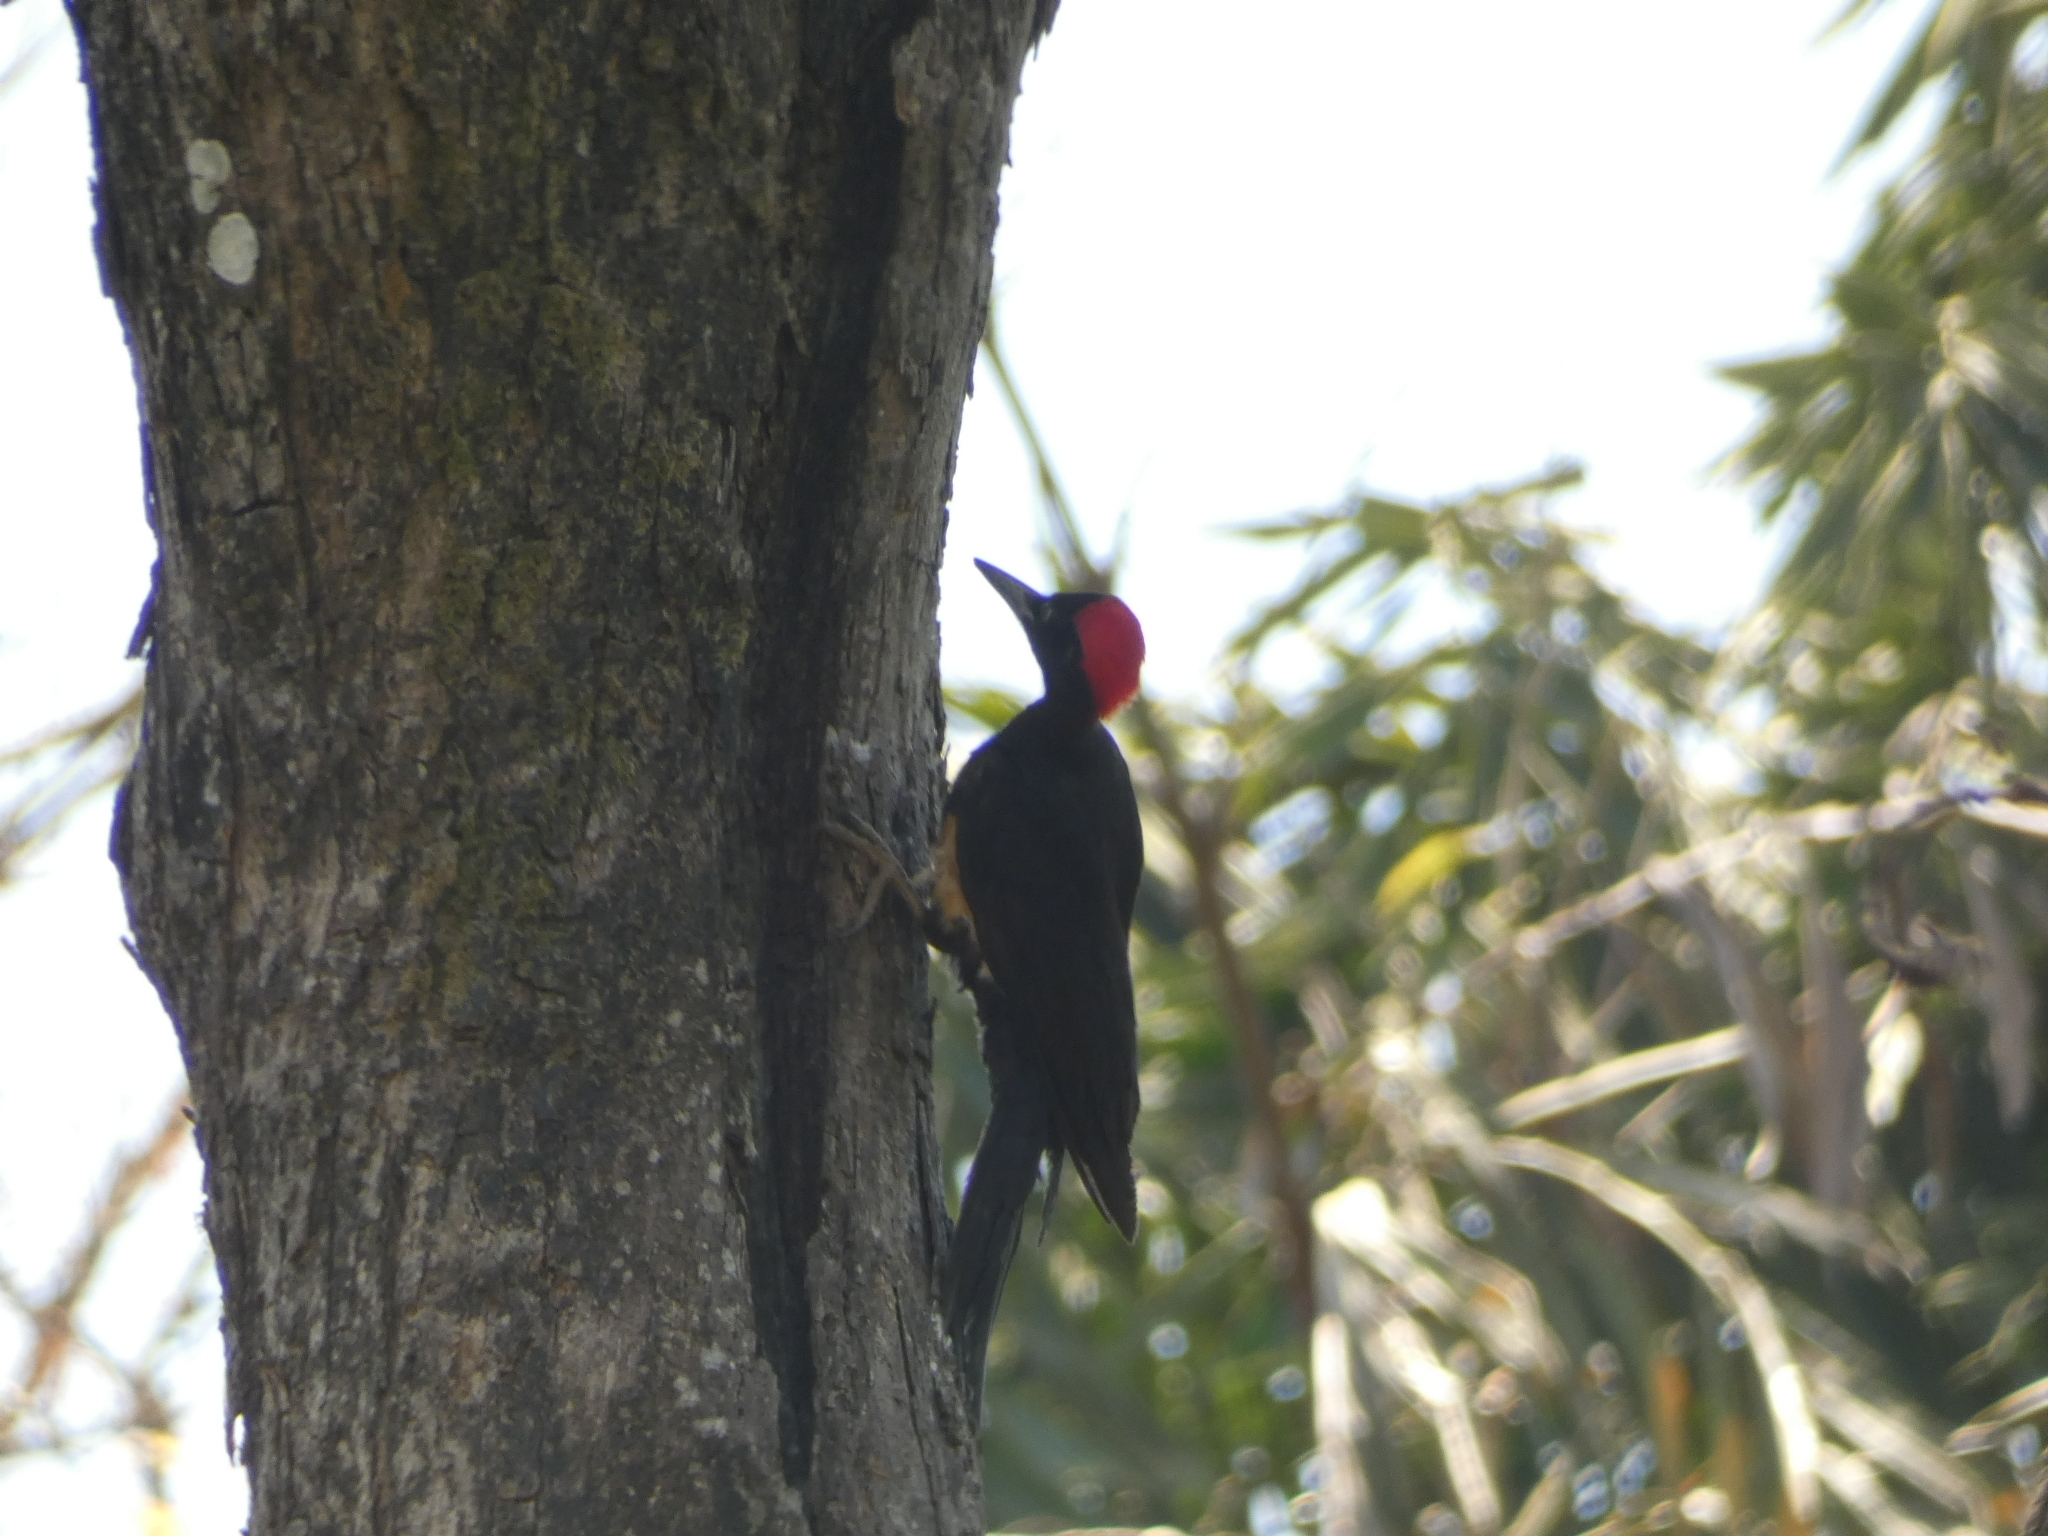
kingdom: Animalia
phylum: Chordata
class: Aves
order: Piciformes
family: Picidae
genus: Dryocopus
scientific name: Dryocopus javensis
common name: White-bellied woodpecker
